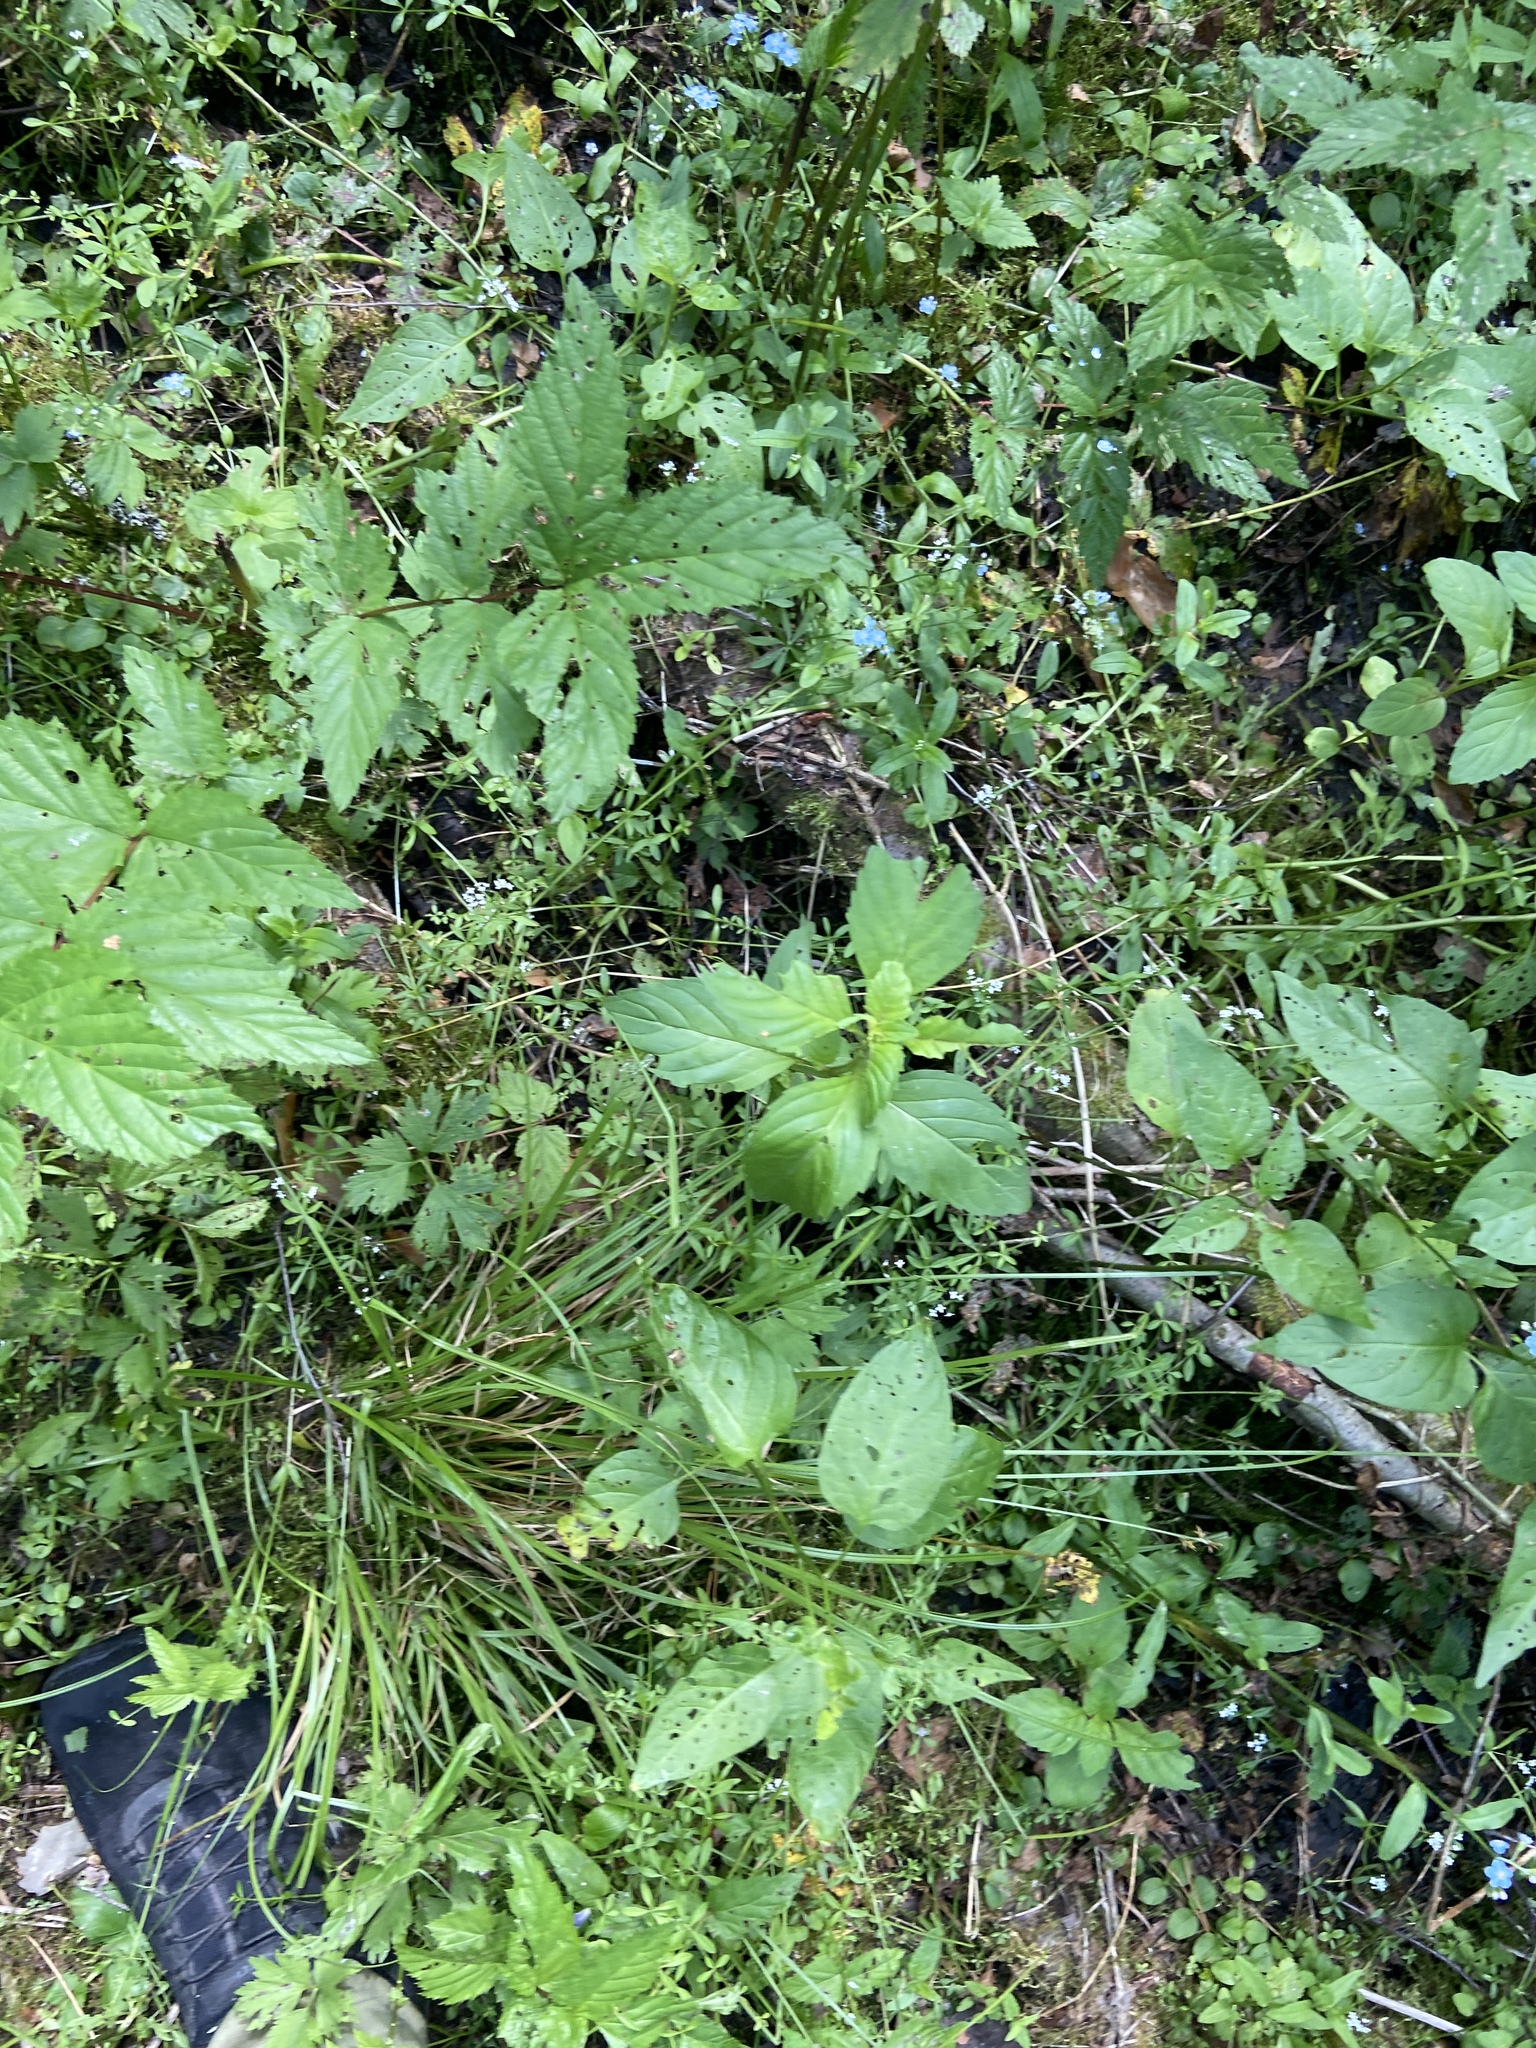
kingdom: Plantae
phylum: Tracheophyta
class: Magnoliopsida
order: Lamiales
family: Lamiaceae
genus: Mentha
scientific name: Mentha arvensis
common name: Corn mint
